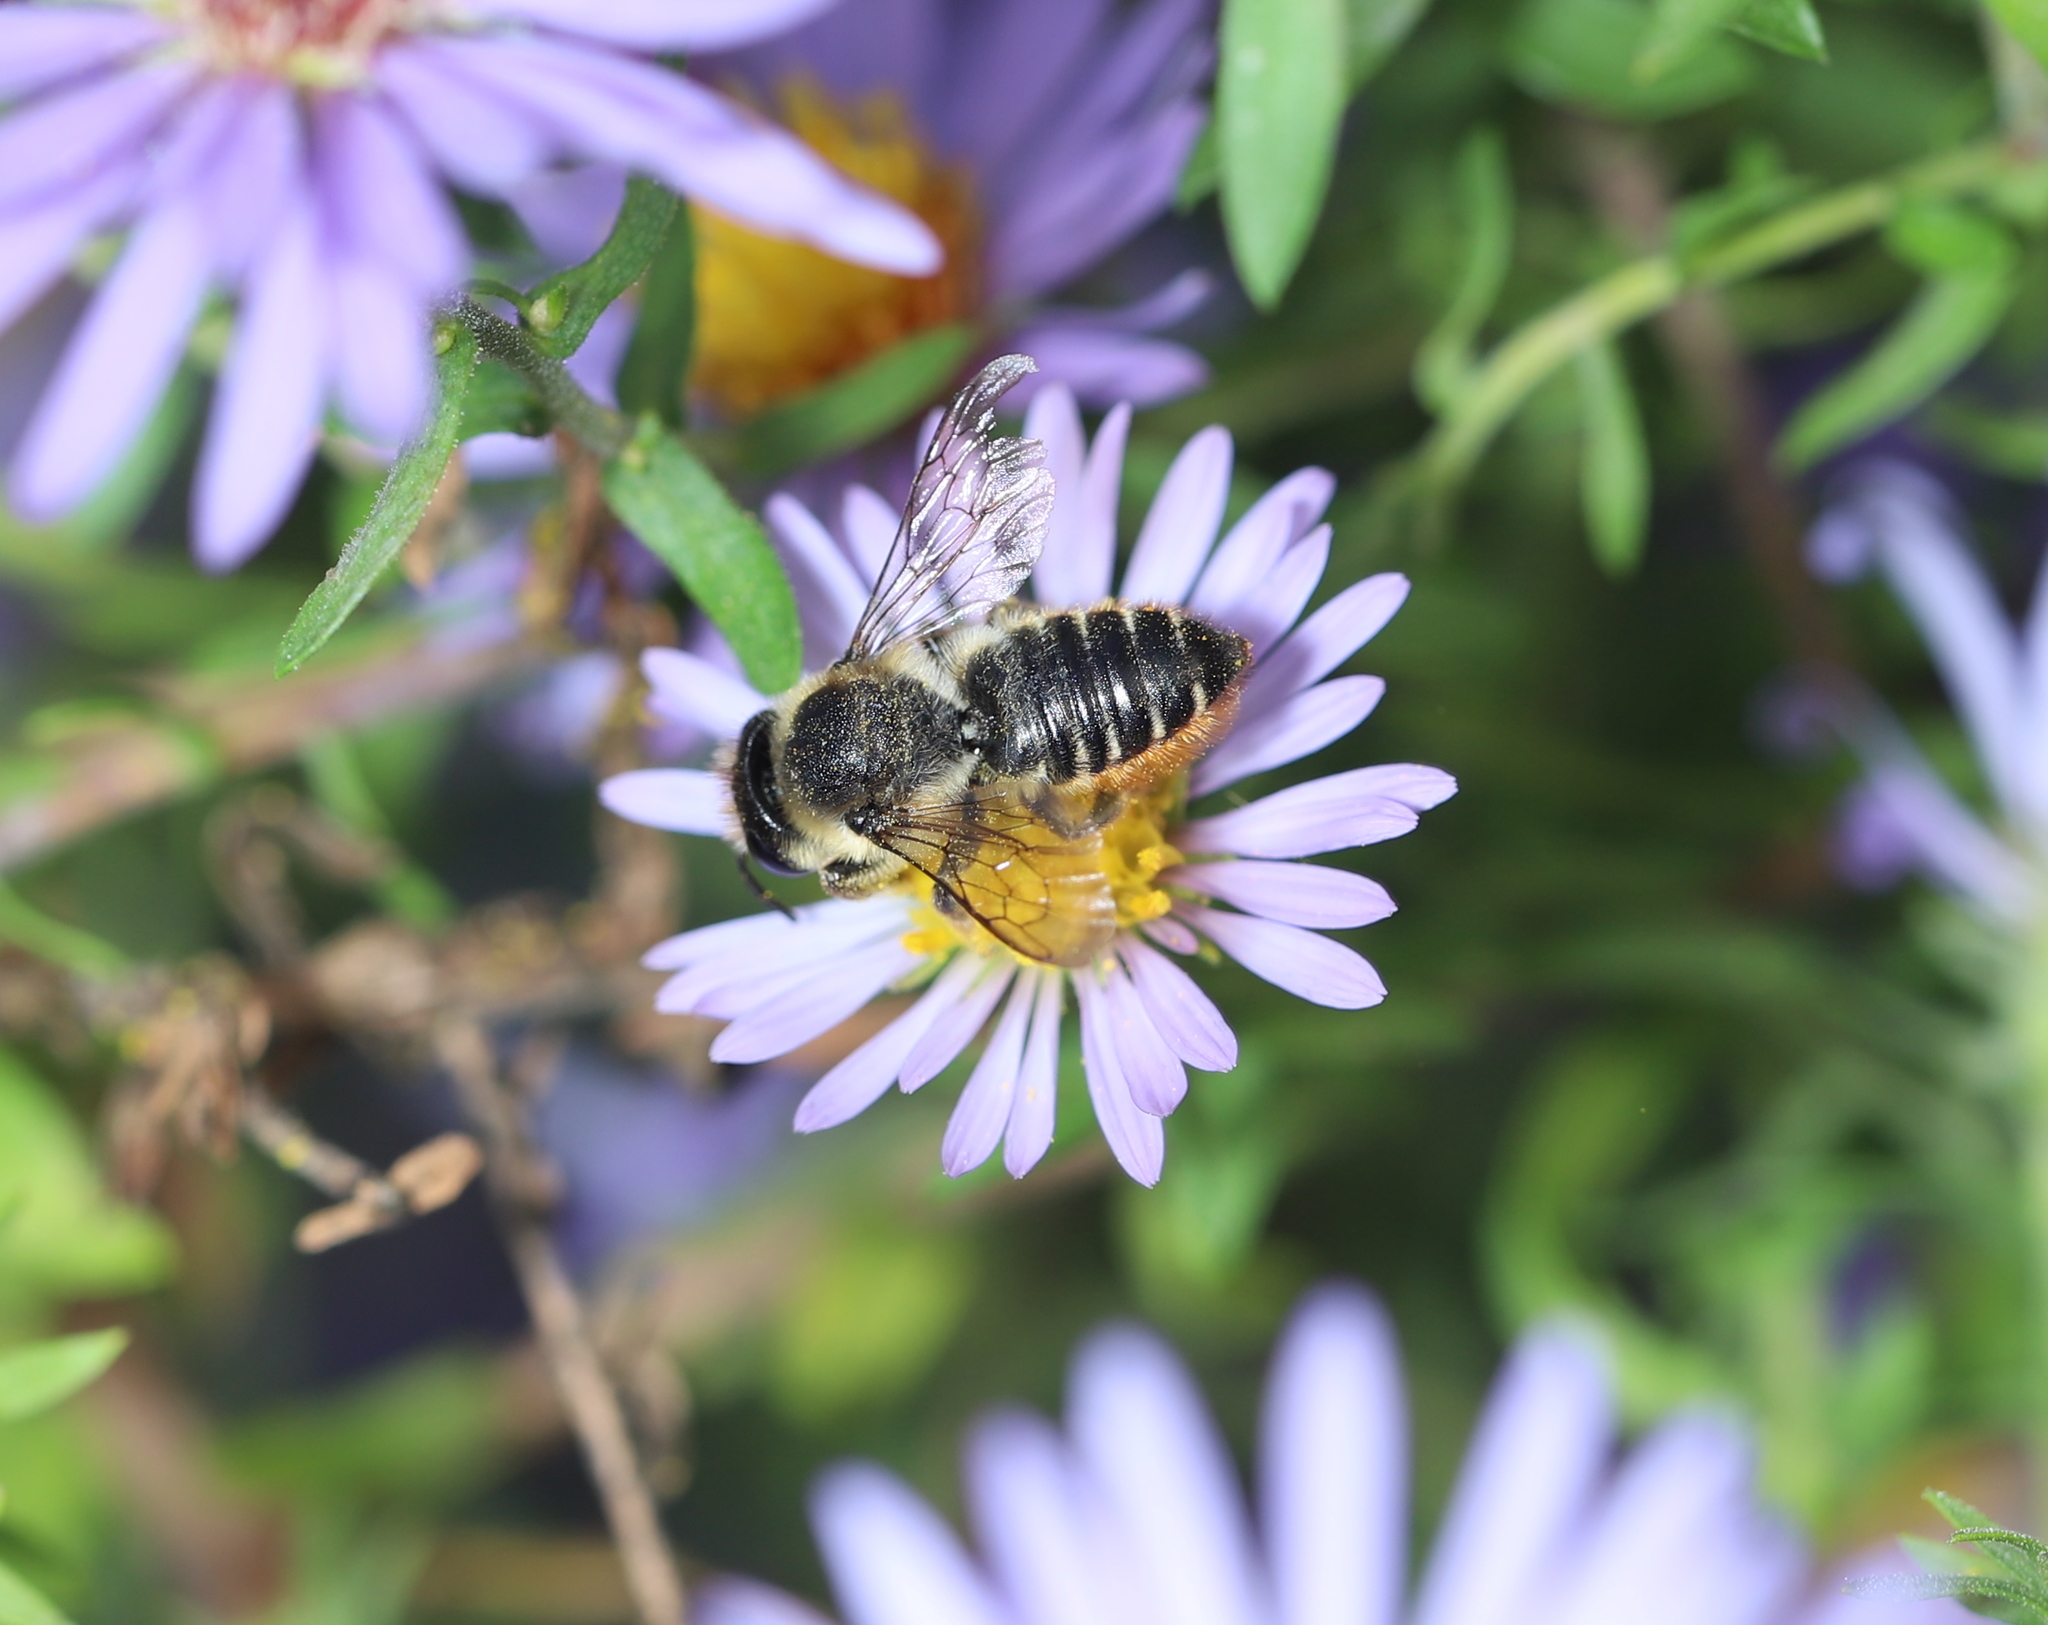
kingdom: Animalia
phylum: Arthropoda
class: Insecta
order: Hymenoptera
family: Megachilidae
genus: Megachile
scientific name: Megachile centuncularis
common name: Patchwork leafcutter bee
